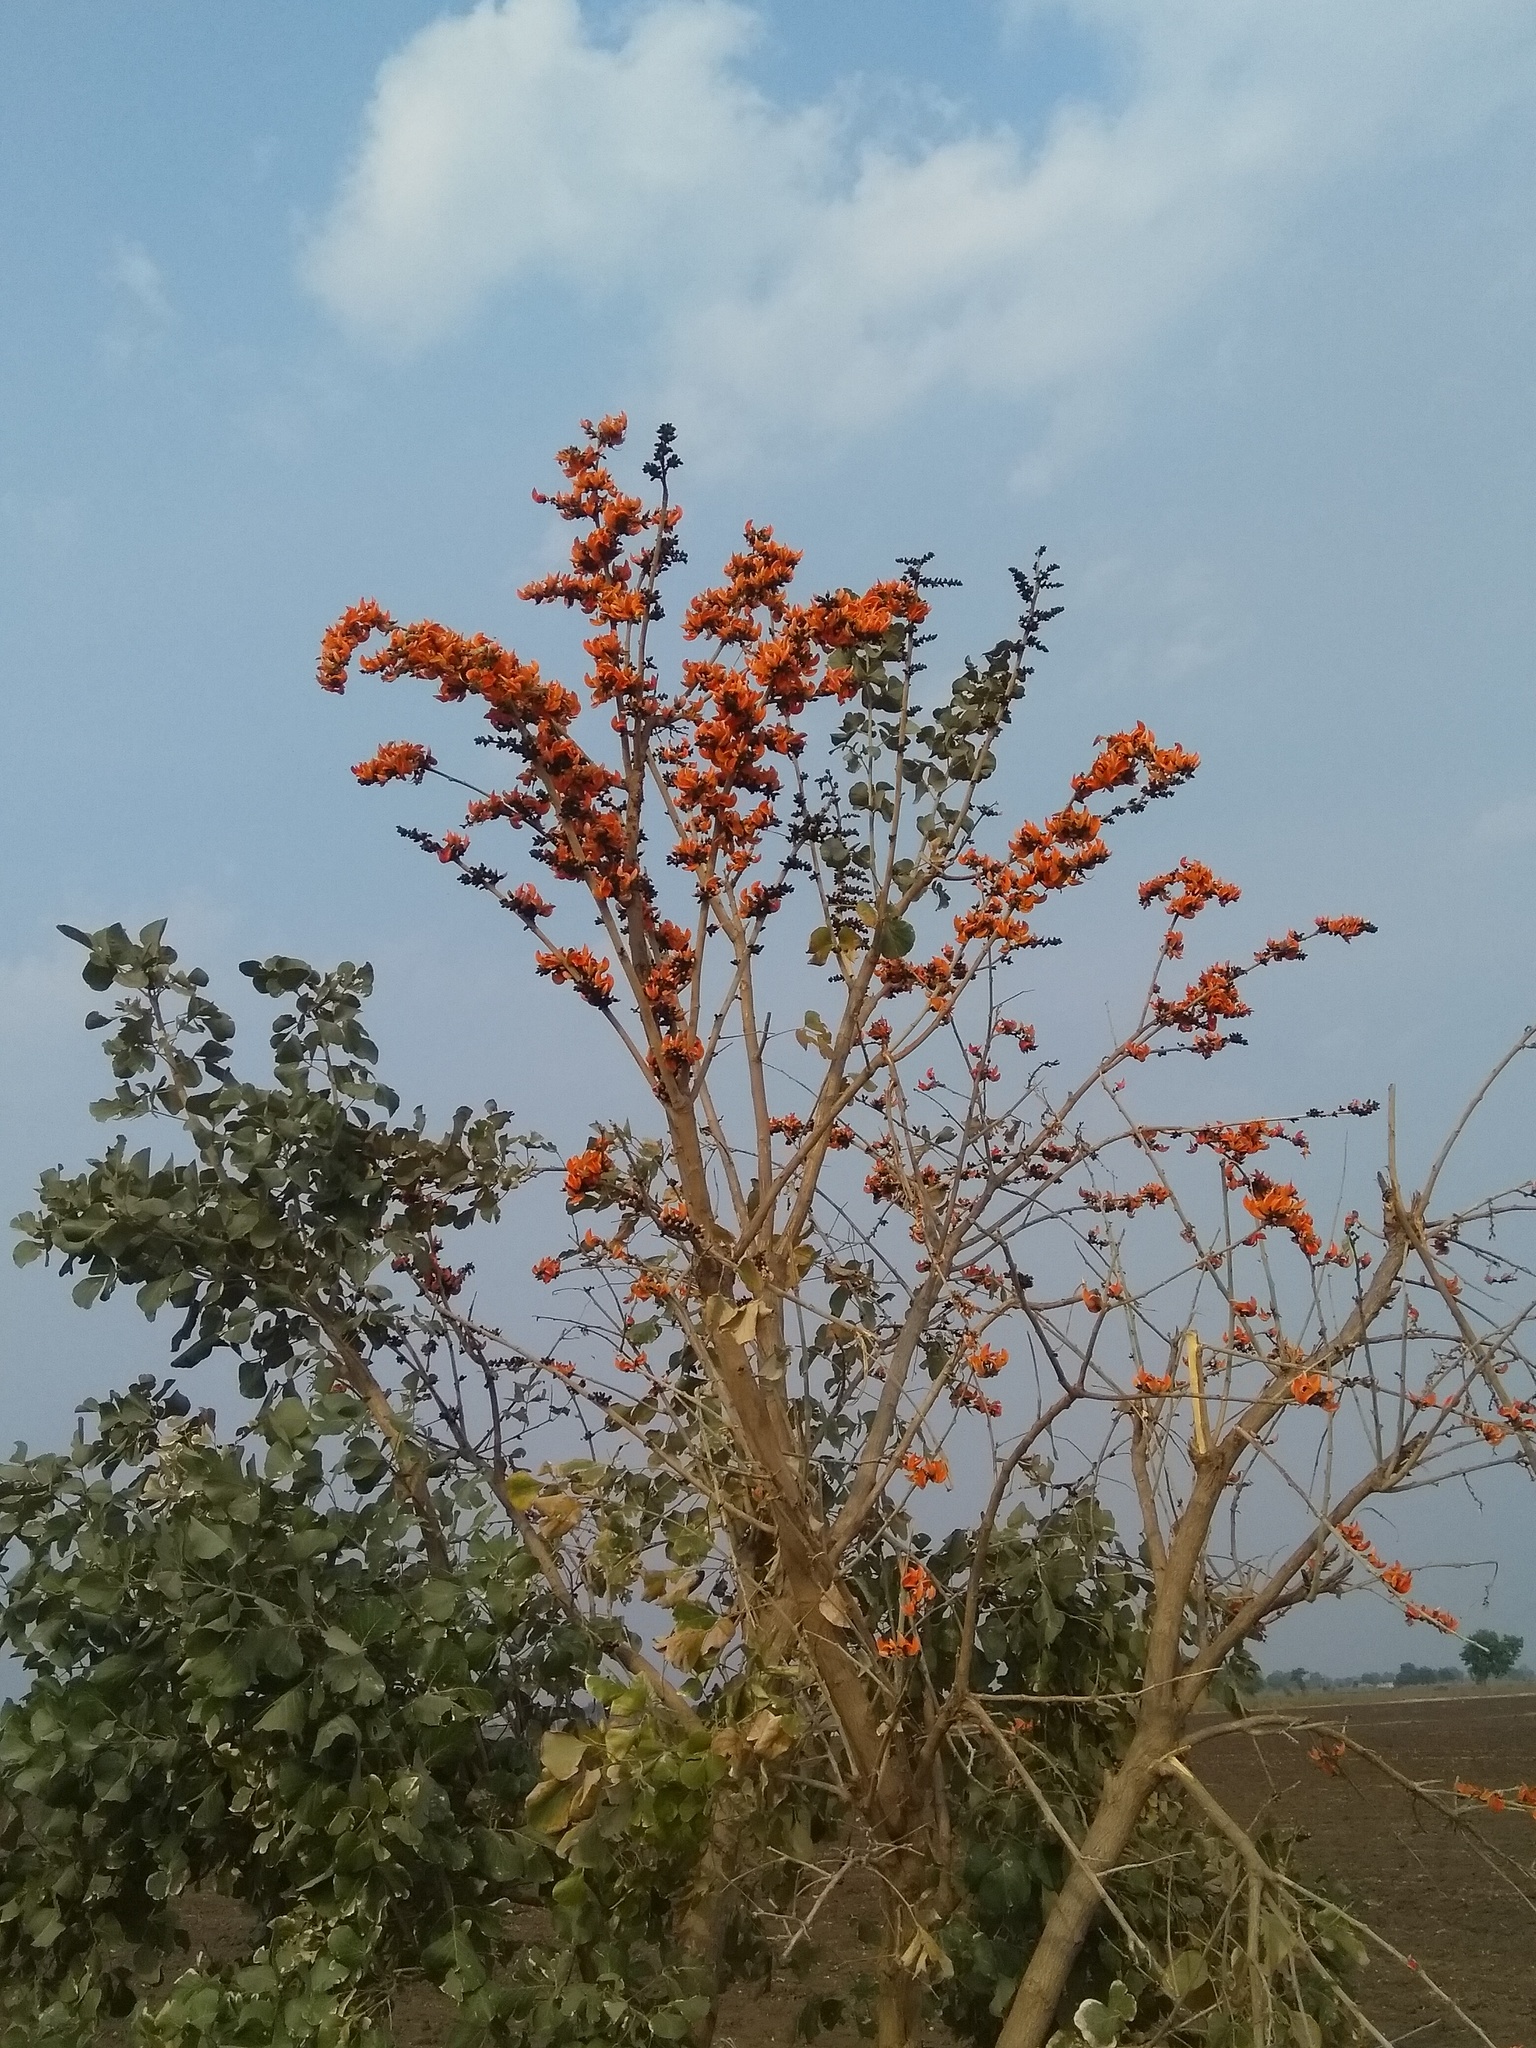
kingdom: Plantae
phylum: Tracheophyta
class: Magnoliopsida
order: Fabales
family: Fabaceae
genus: Butea
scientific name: Butea monosperma
